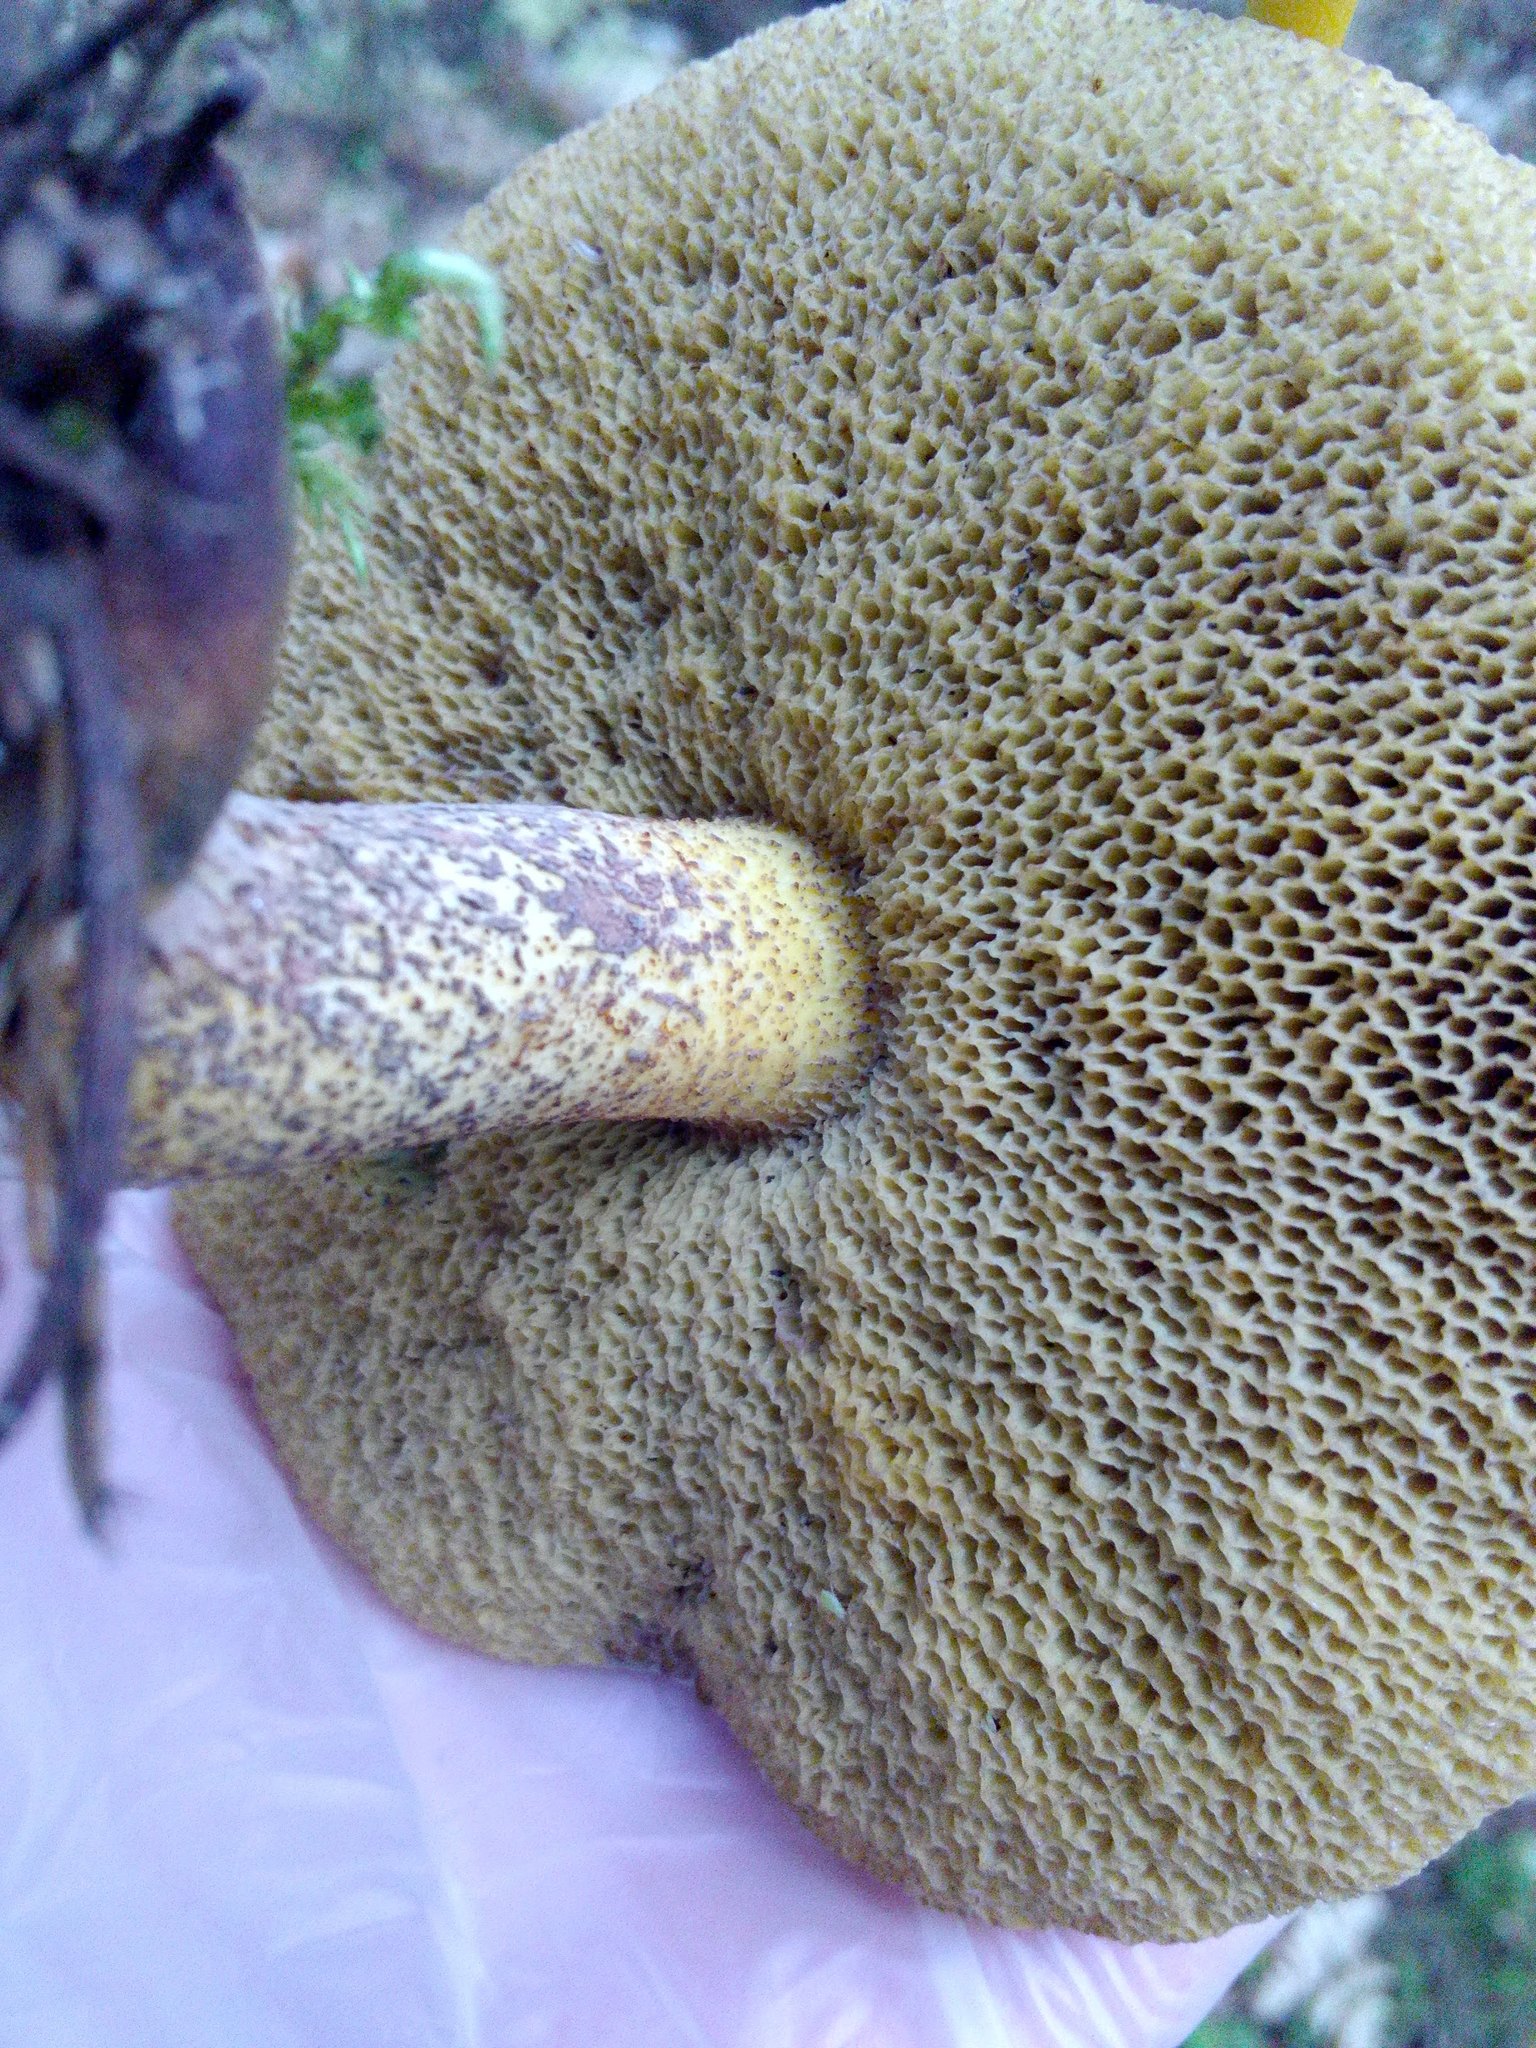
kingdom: Fungi
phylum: Basidiomycota
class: Agaricomycetes
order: Boletales
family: Suillaceae
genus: Suillus
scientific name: Suillus punctipes
